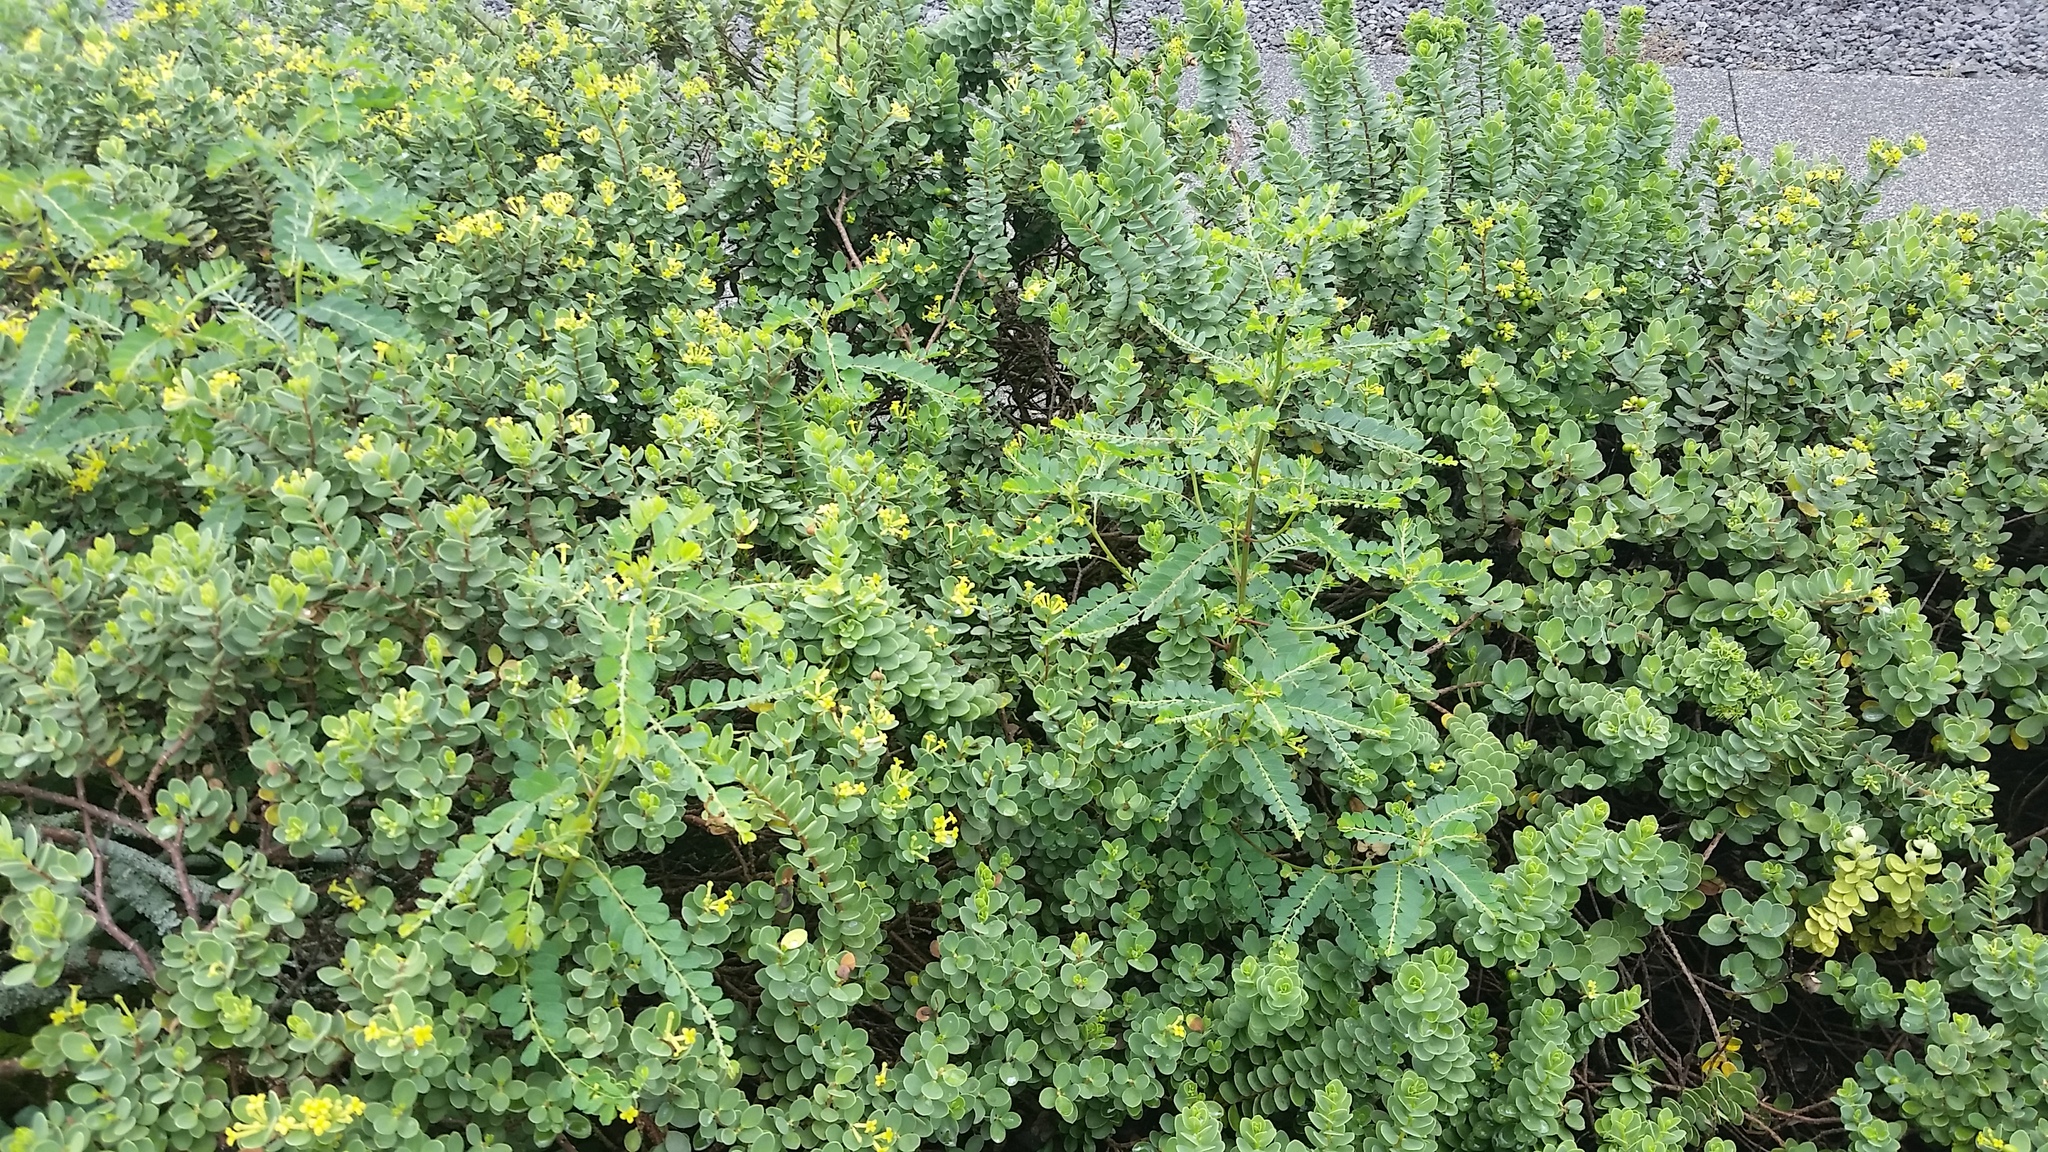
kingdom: Plantae
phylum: Tracheophyta
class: Magnoliopsida
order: Malpighiales
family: Phyllanthaceae
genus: Phyllanthus
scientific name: Phyllanthus leucanthus
